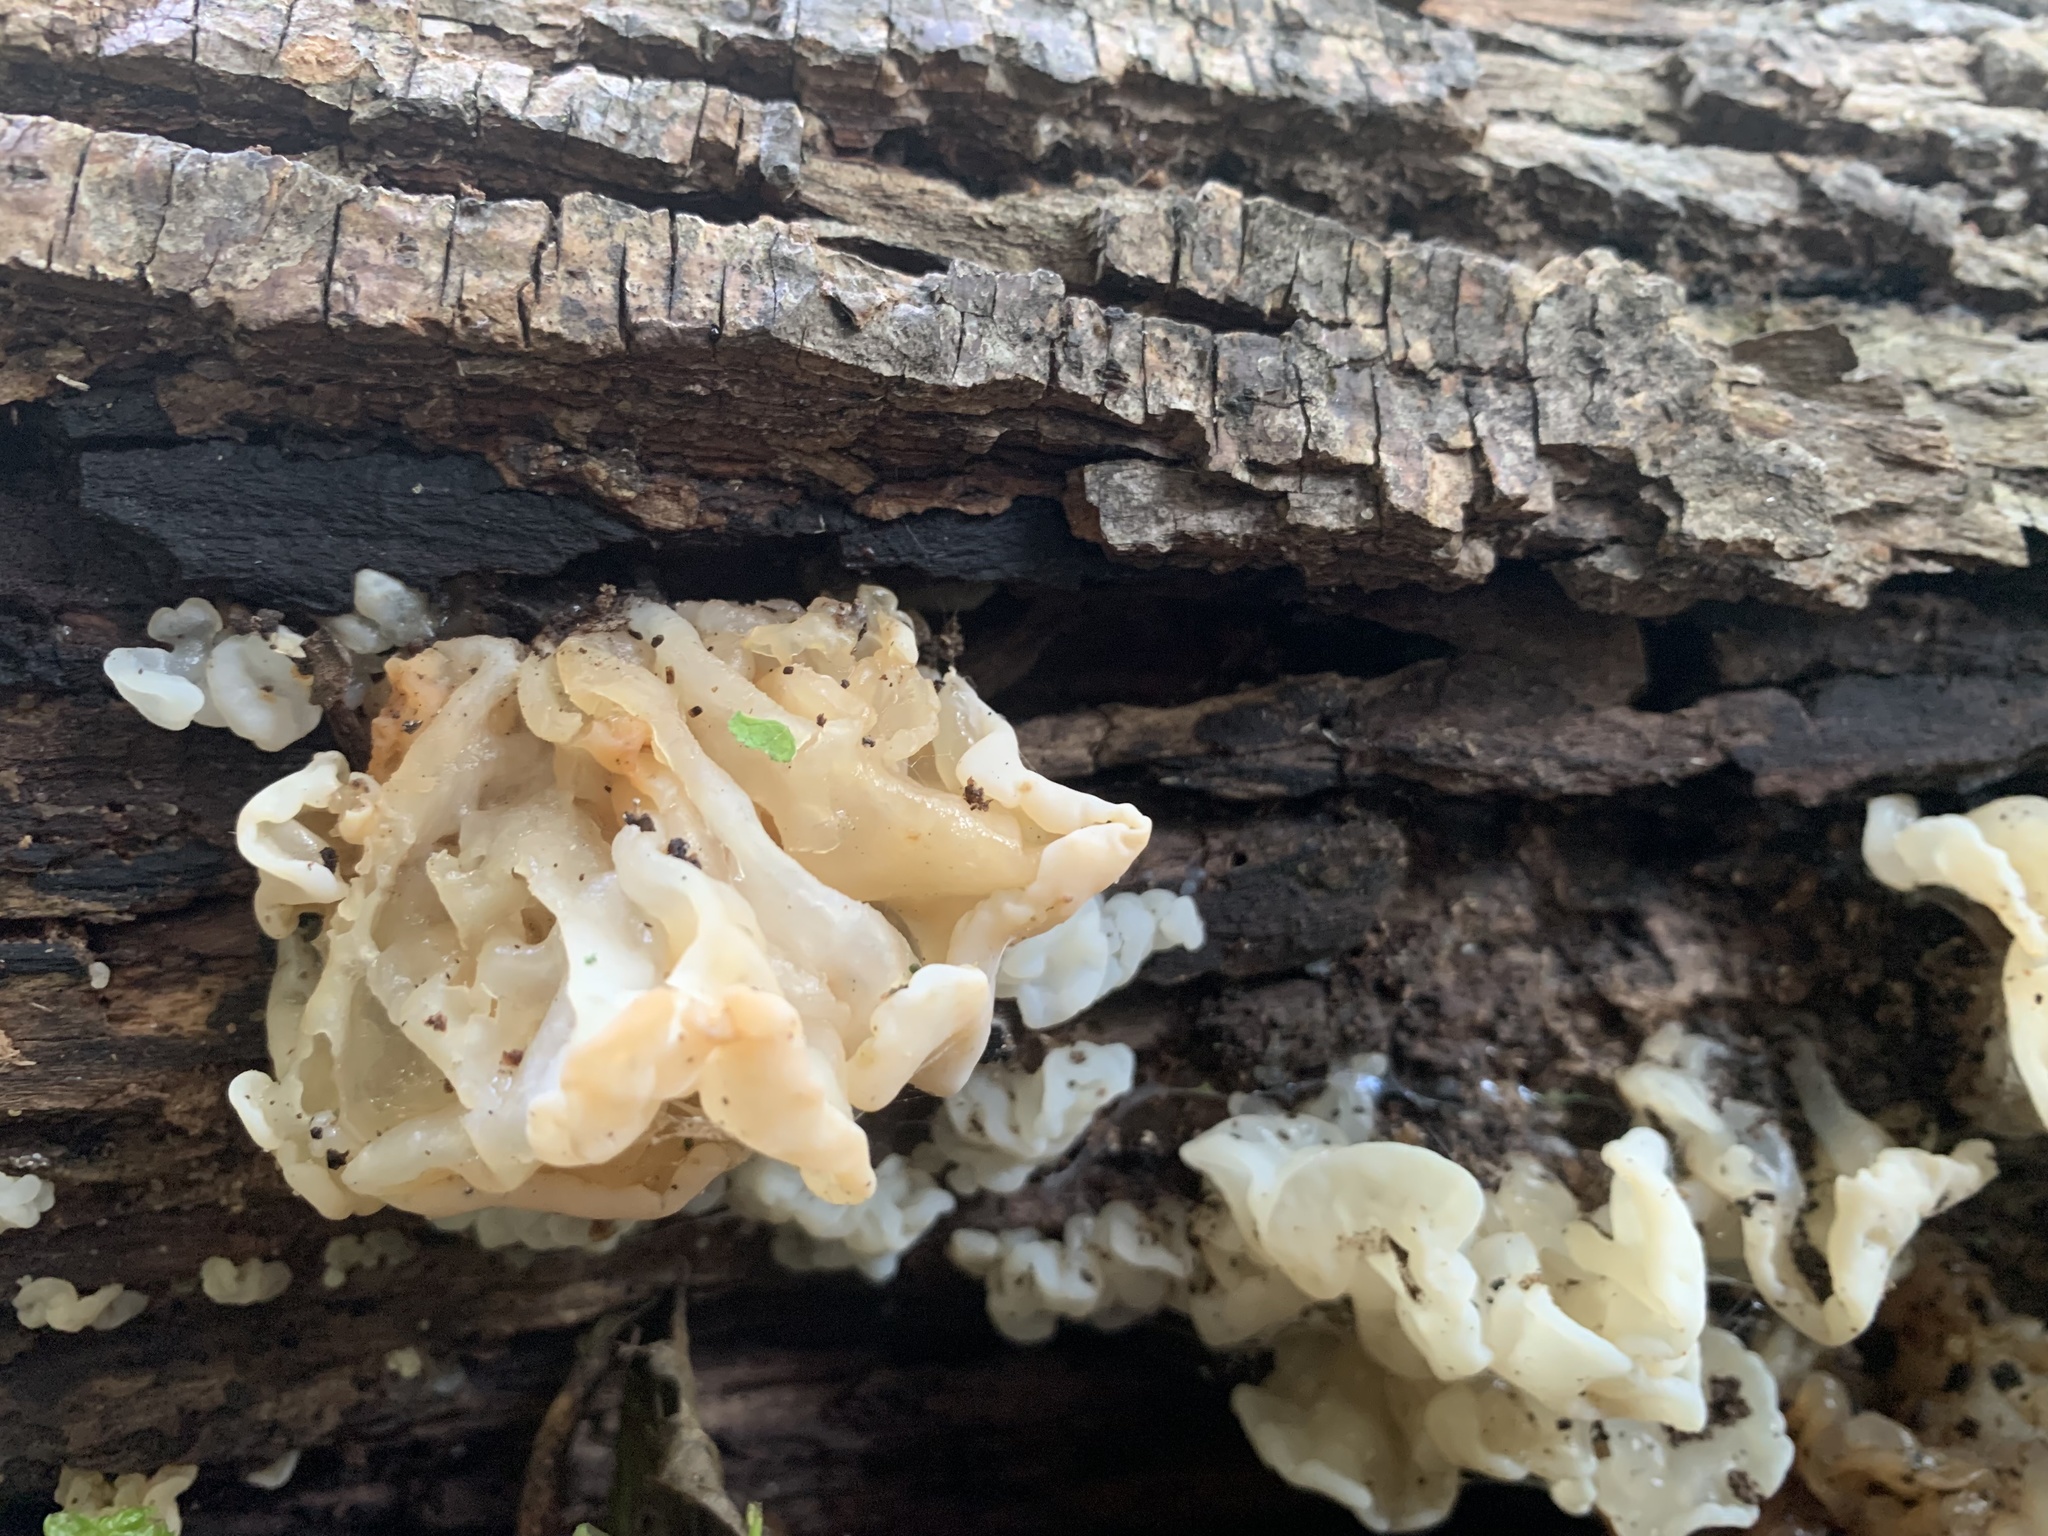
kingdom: Fungi
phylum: Basidiomycota
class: Agaricomycetes
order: Auriculariales
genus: Ductifera
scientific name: Ductifera pululahuana
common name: White jelly fungus
